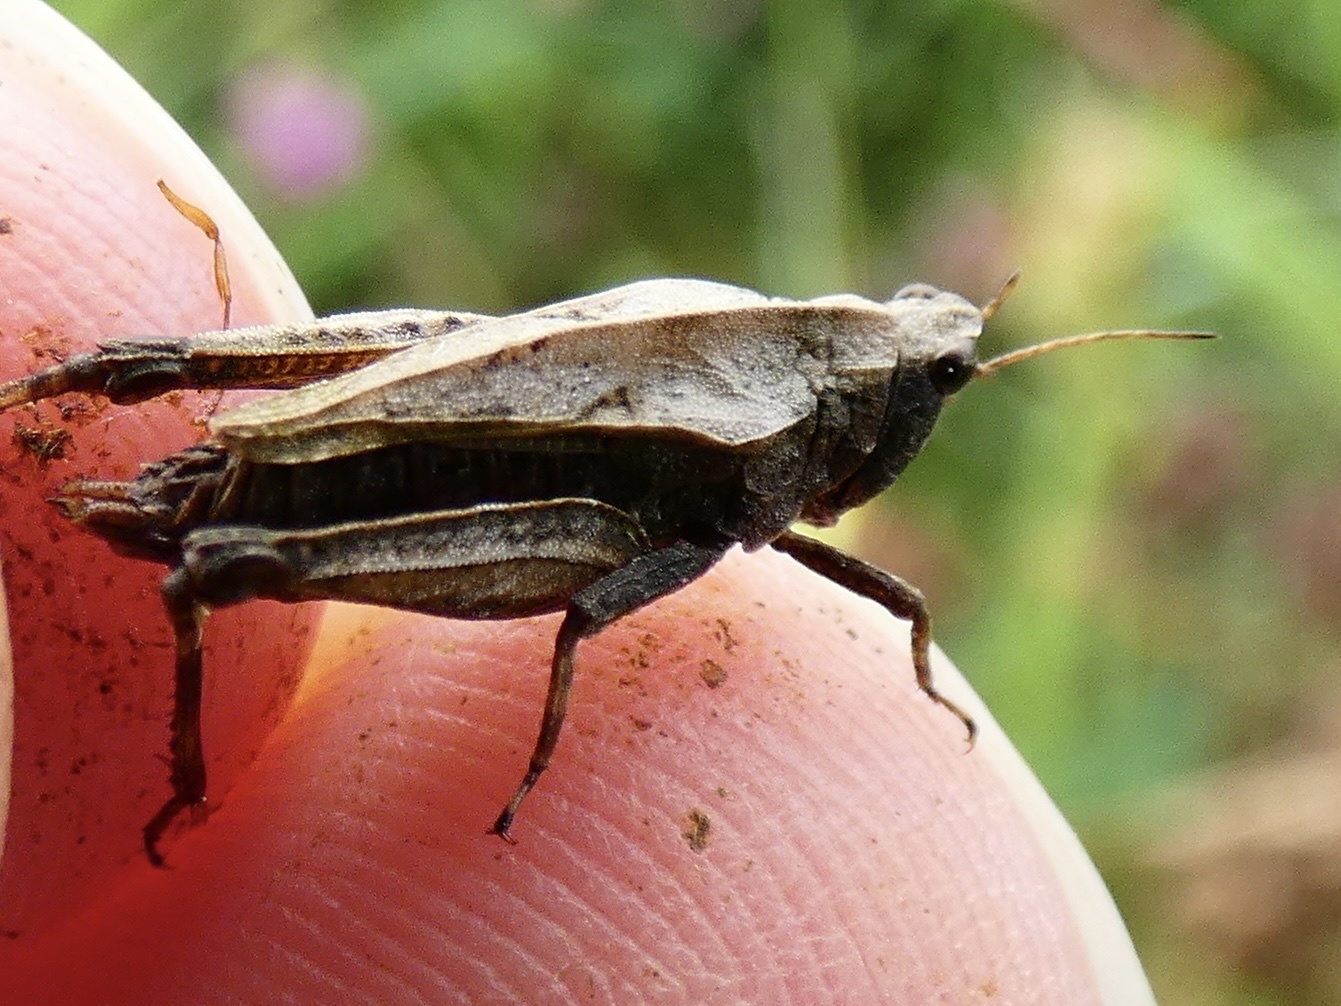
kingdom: Animalia
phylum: Arthropoda
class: Insecta
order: Orthoptera
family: Tetrigidae
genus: Tetrix
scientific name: Tetrix undulata
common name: Common groundhopper
